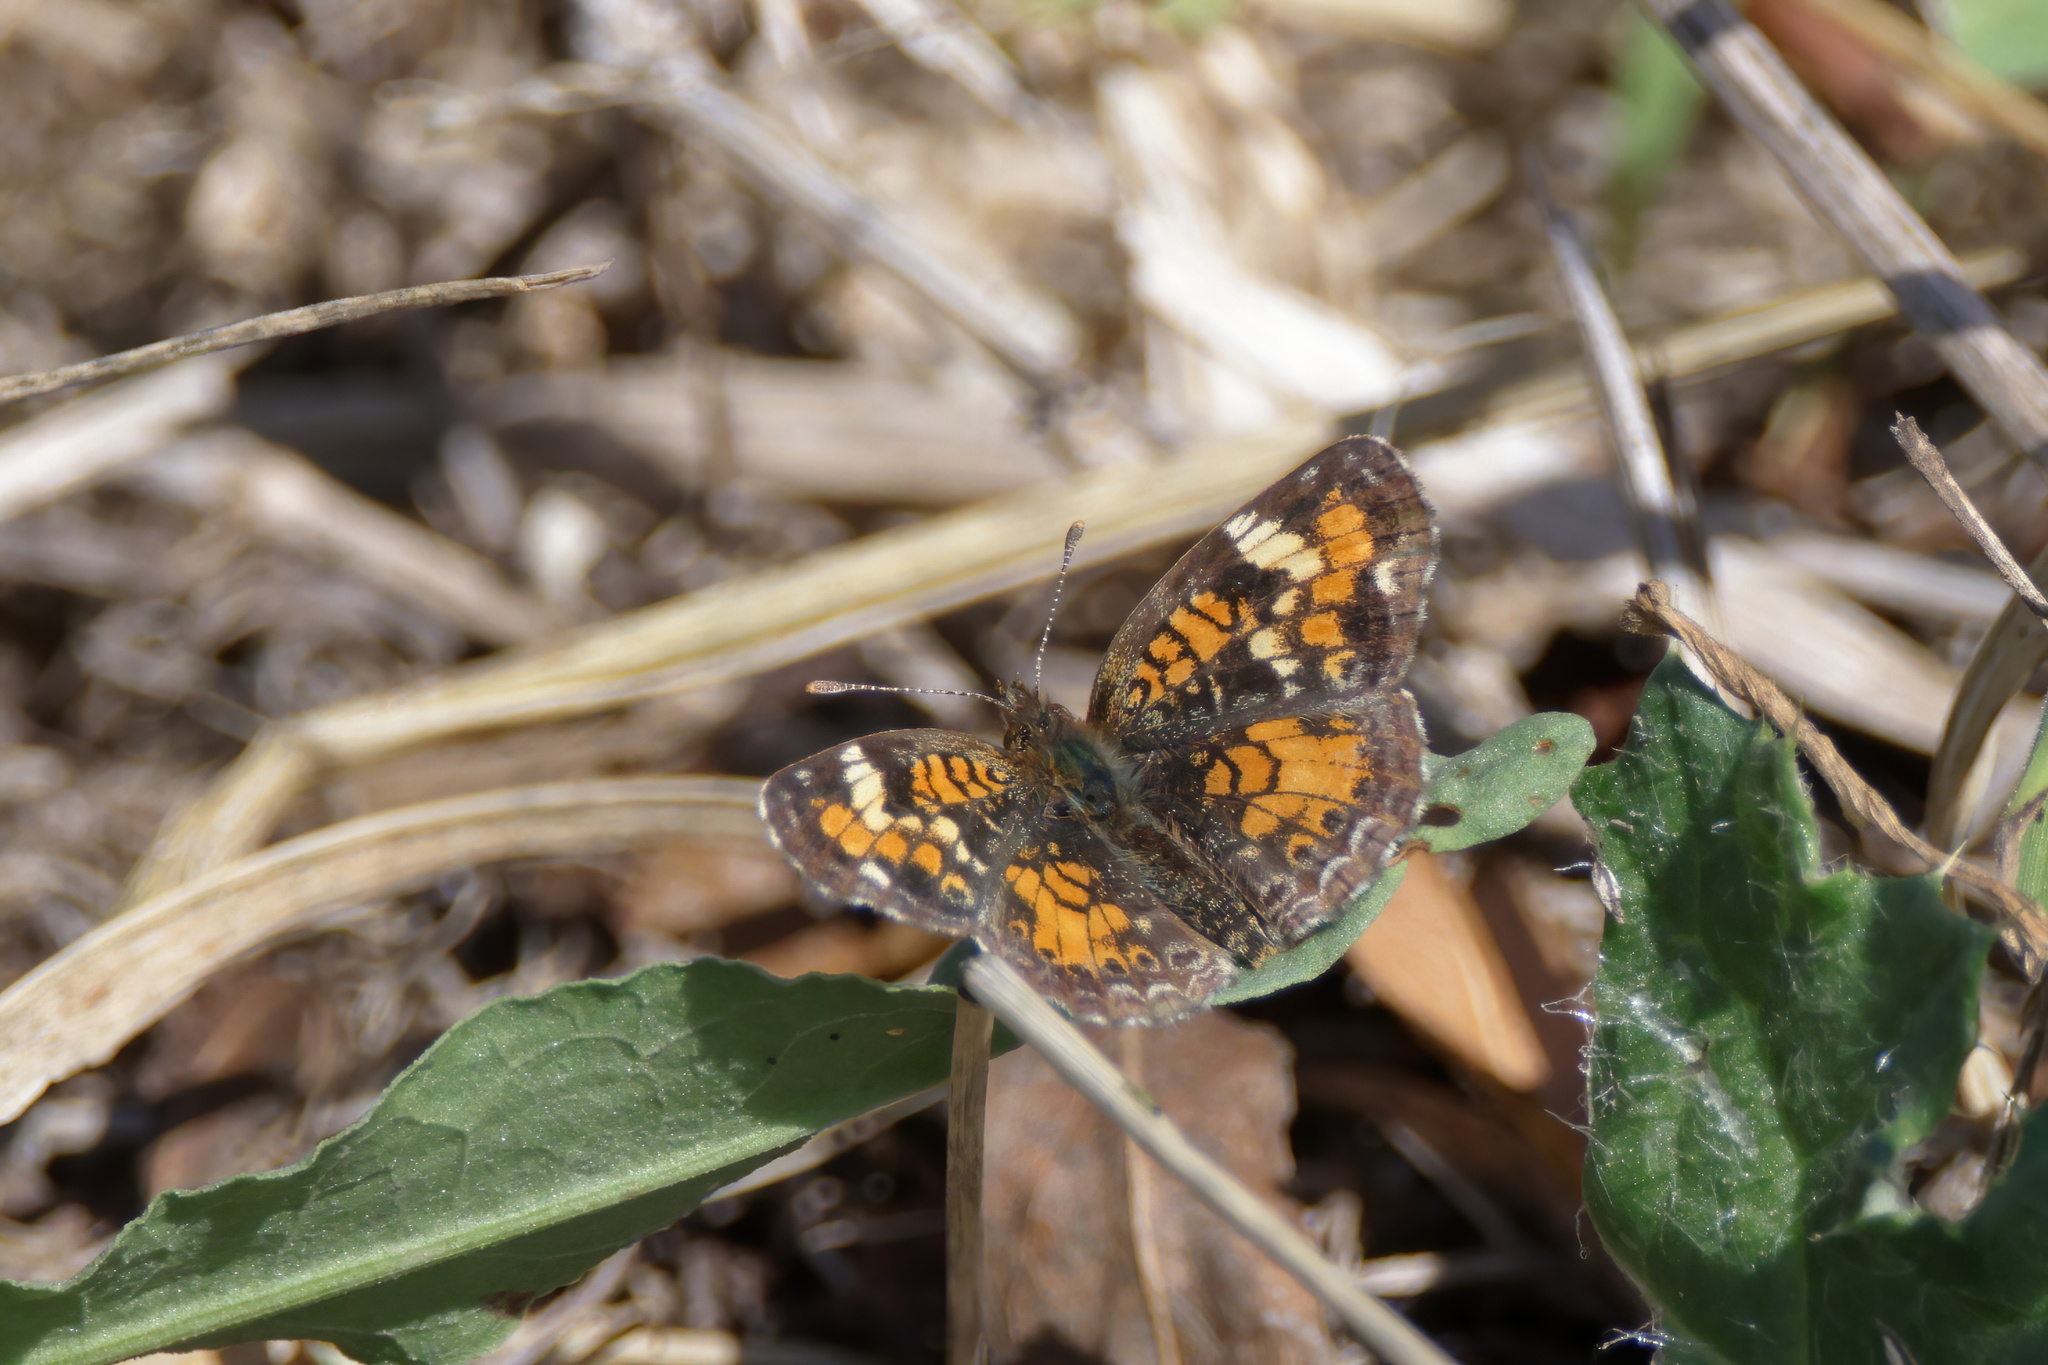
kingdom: Animalia
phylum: Arthropoda
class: Insecta
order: Lepidoptera
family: Nymphalidae
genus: Phyciodes
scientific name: Phyciodes phaon
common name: Phaon crescent
